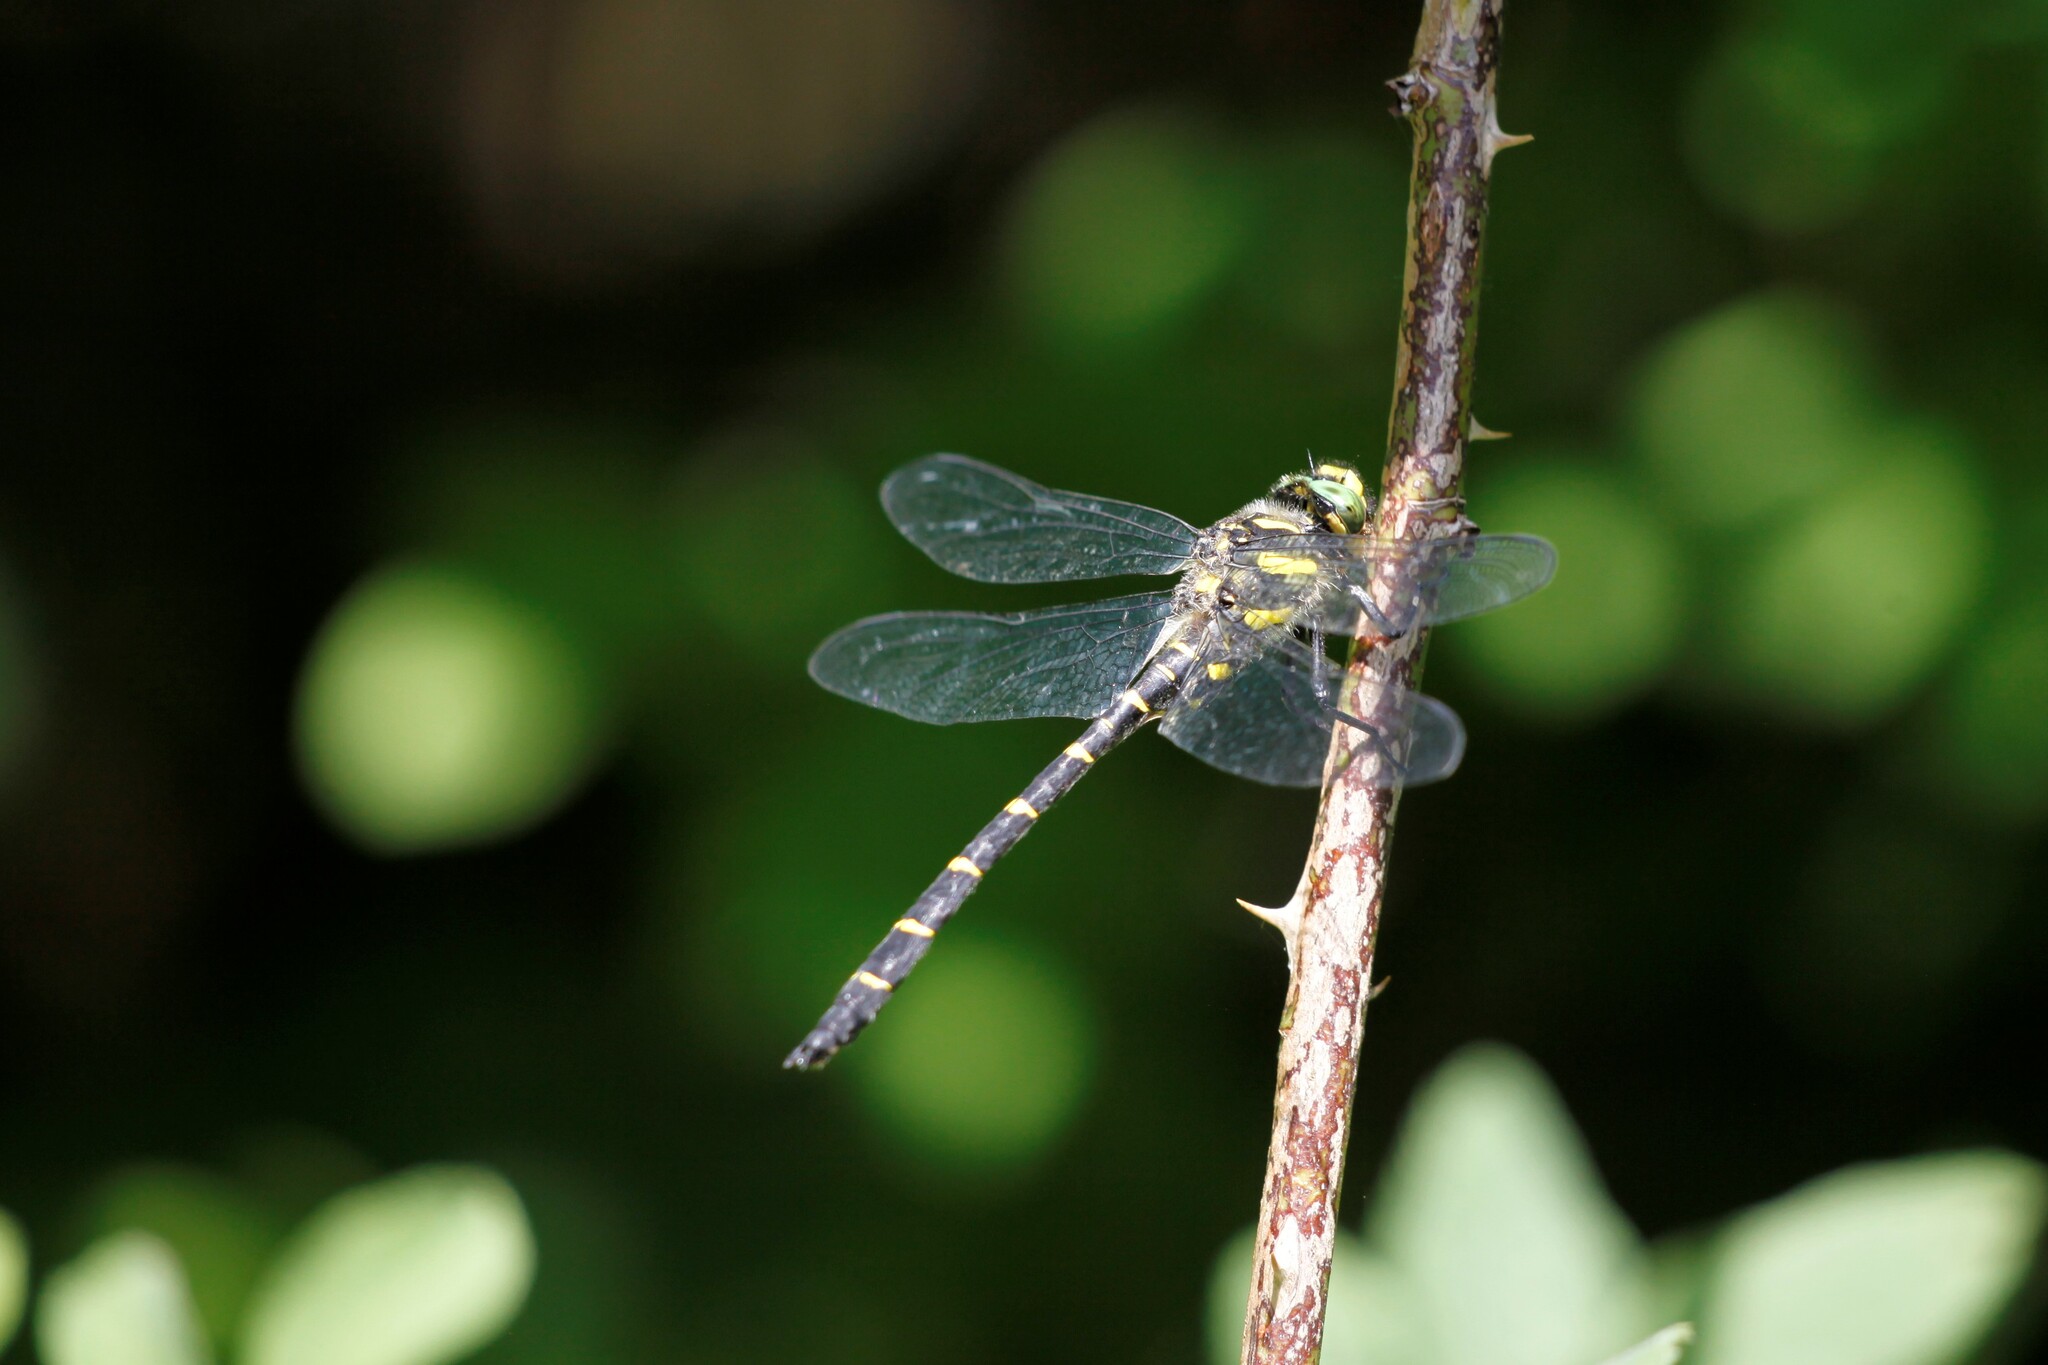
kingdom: Animalia
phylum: Arthropoda
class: Insecta
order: Odonata
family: Cordulegastridae
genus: Cordulegaster
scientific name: Cordulegaster bidentata
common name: Sombre goldenring
